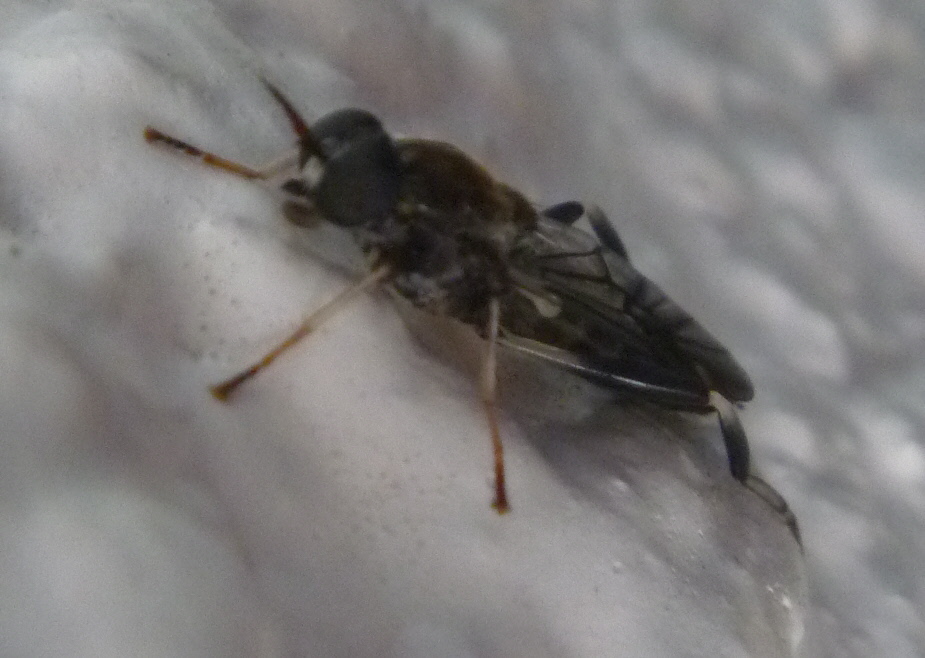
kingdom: Animalia
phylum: Arthropoda
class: Insecta
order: Diptera
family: Stratiomyidae
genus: Exaireta
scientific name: Exaireta spinigera
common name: Blue soldier fly
